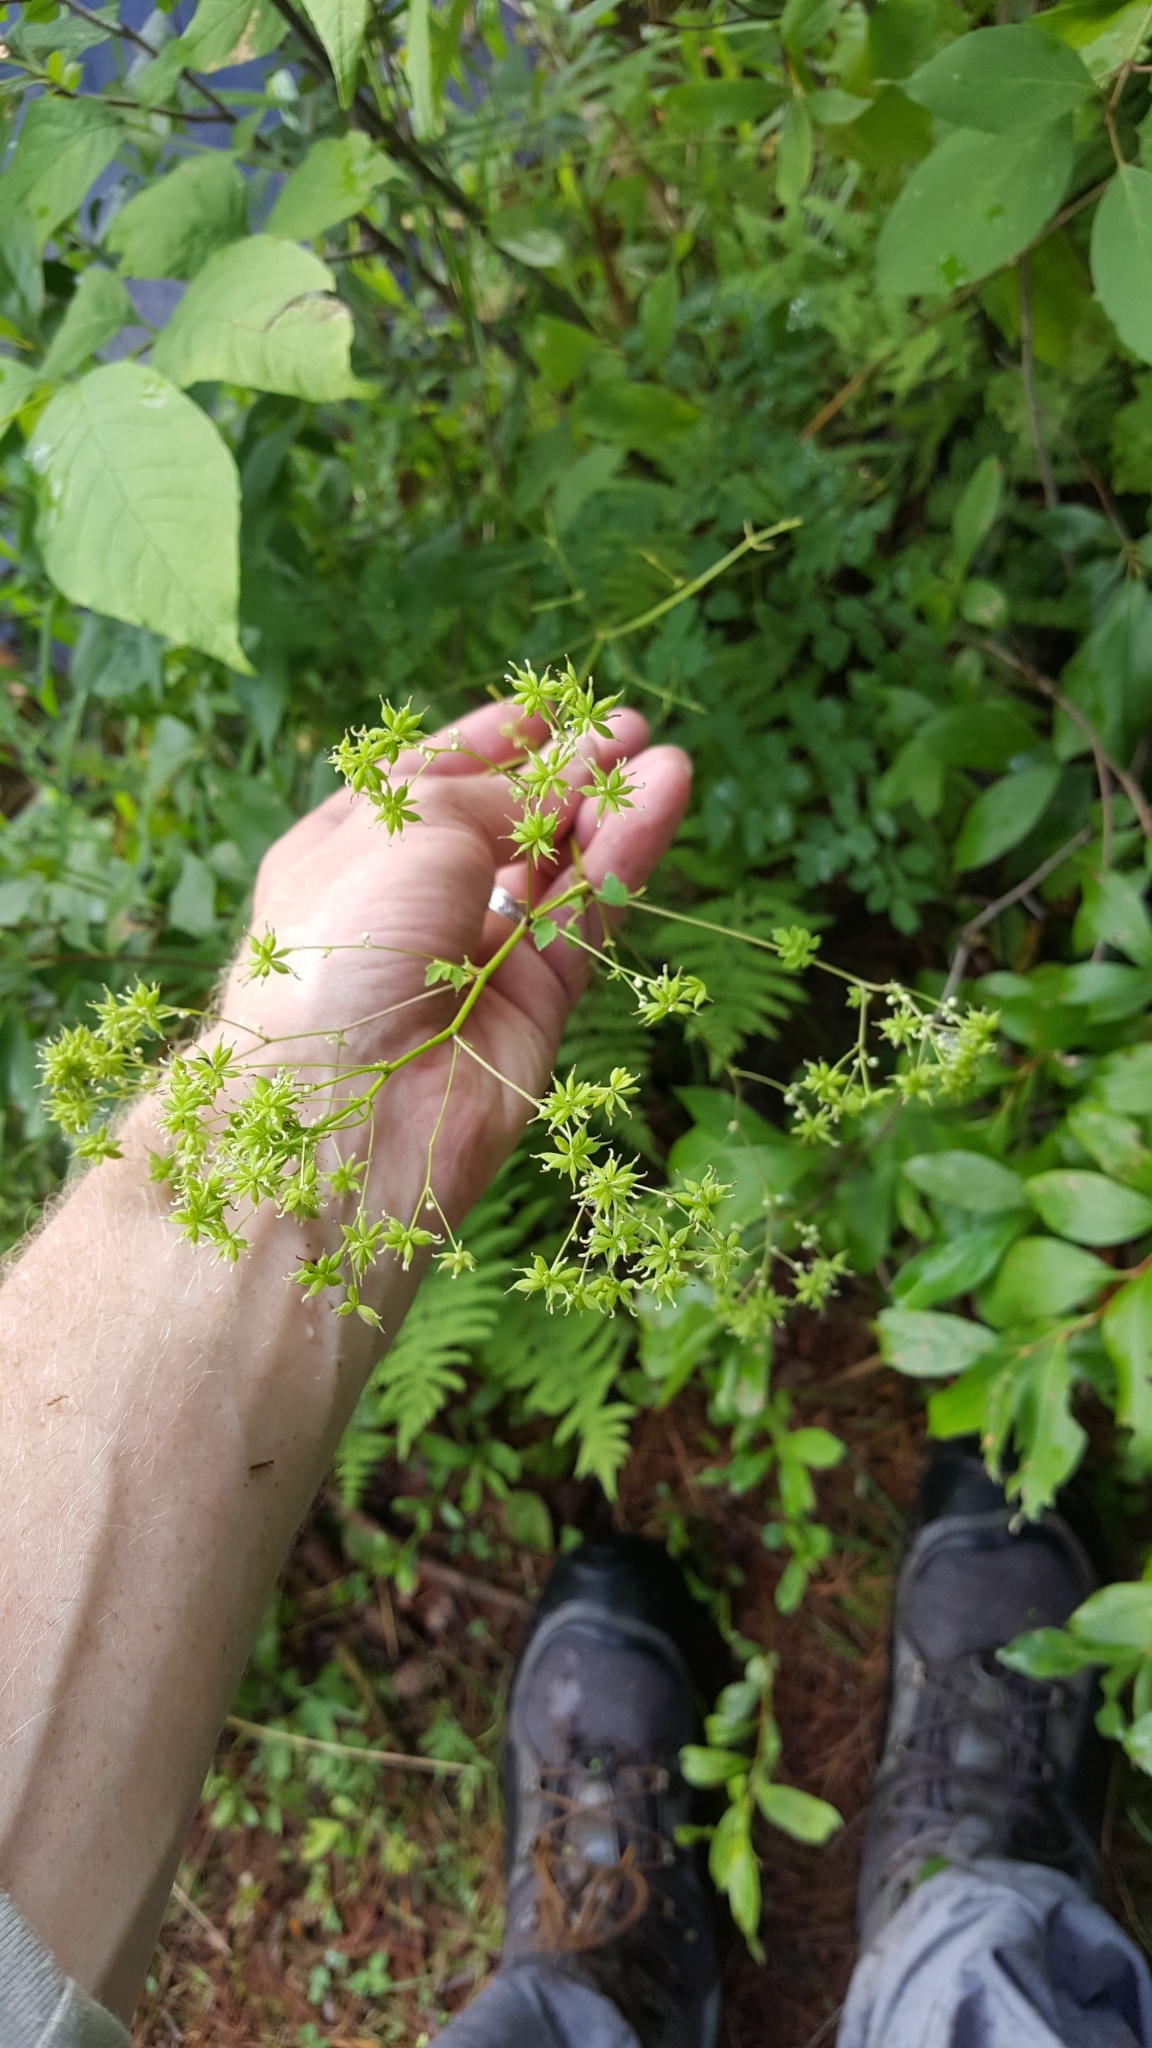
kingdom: Plantae
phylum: Tracheophyta
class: Magnoliopsida
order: Ranunculales
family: Ranunculaceae
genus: Thalictrum
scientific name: Thalictrum pubescens
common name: King-of-the-meadow
